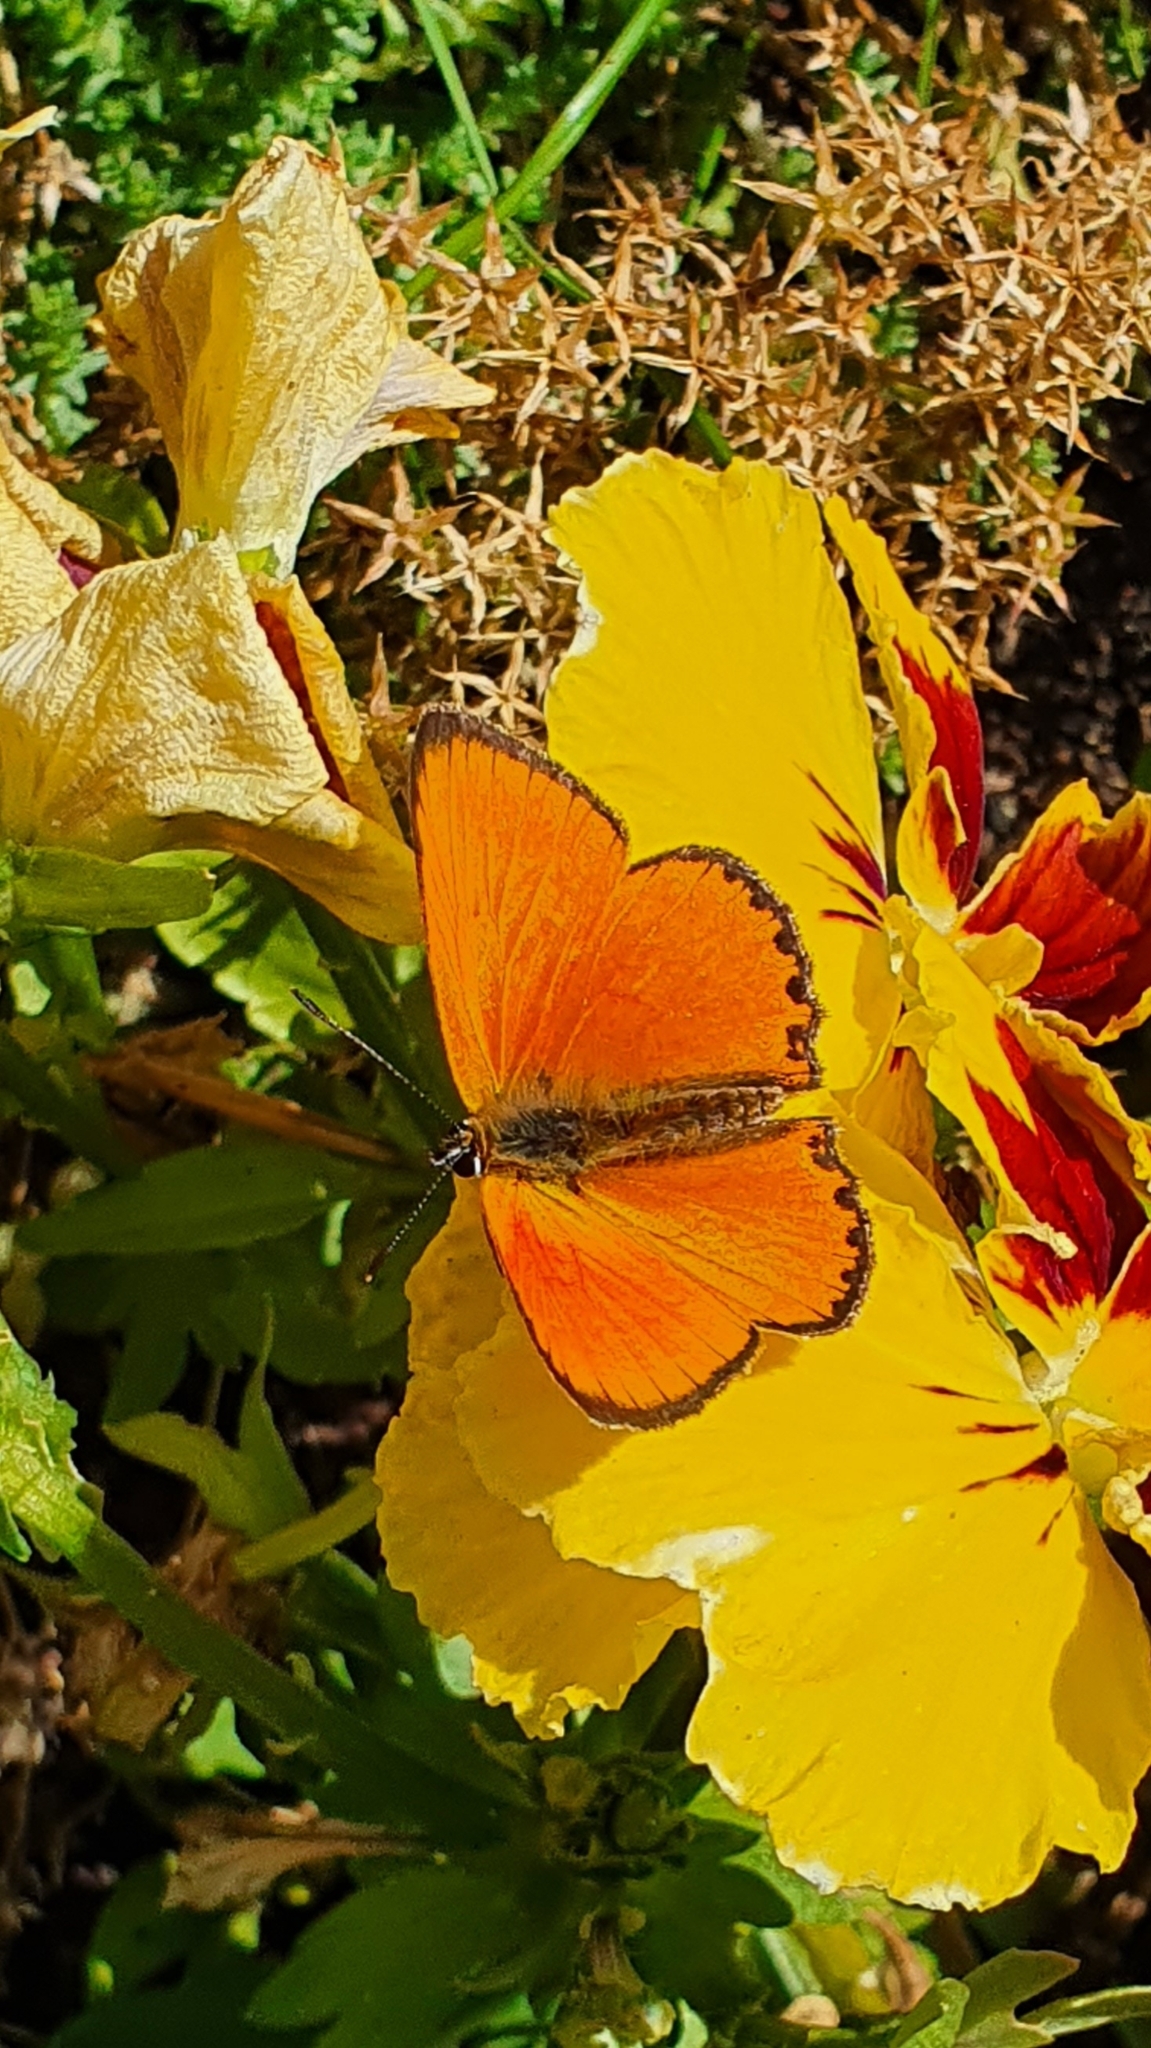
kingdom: Animalia
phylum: Arthropoda
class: Insecta
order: Lepidoptera
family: Lycaenidae
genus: Lycaena
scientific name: Lycaena virgaureae
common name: Scarce copper
